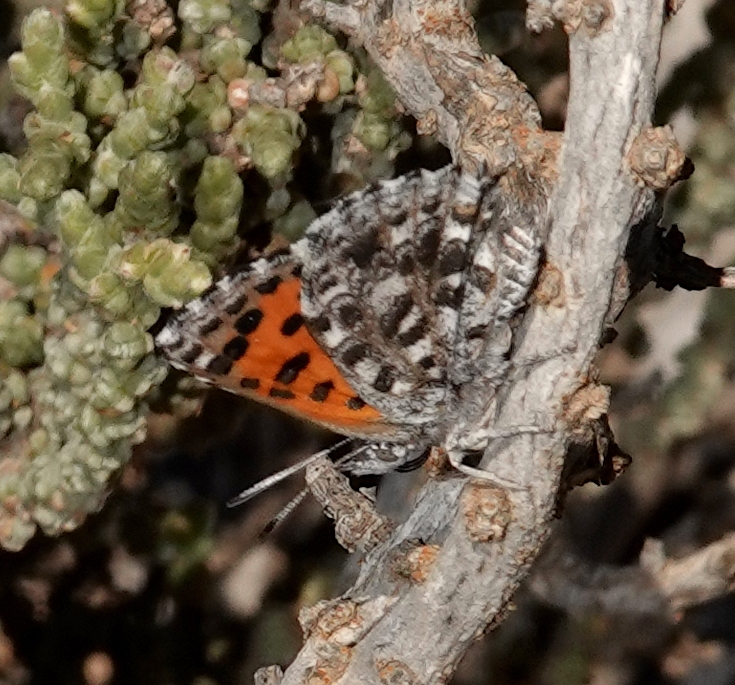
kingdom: Animalia
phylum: Arthropoda
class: Insecta
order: Lepidoptera
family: Lycaenidae
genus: Zeritis
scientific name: Zeritis chrysantas
